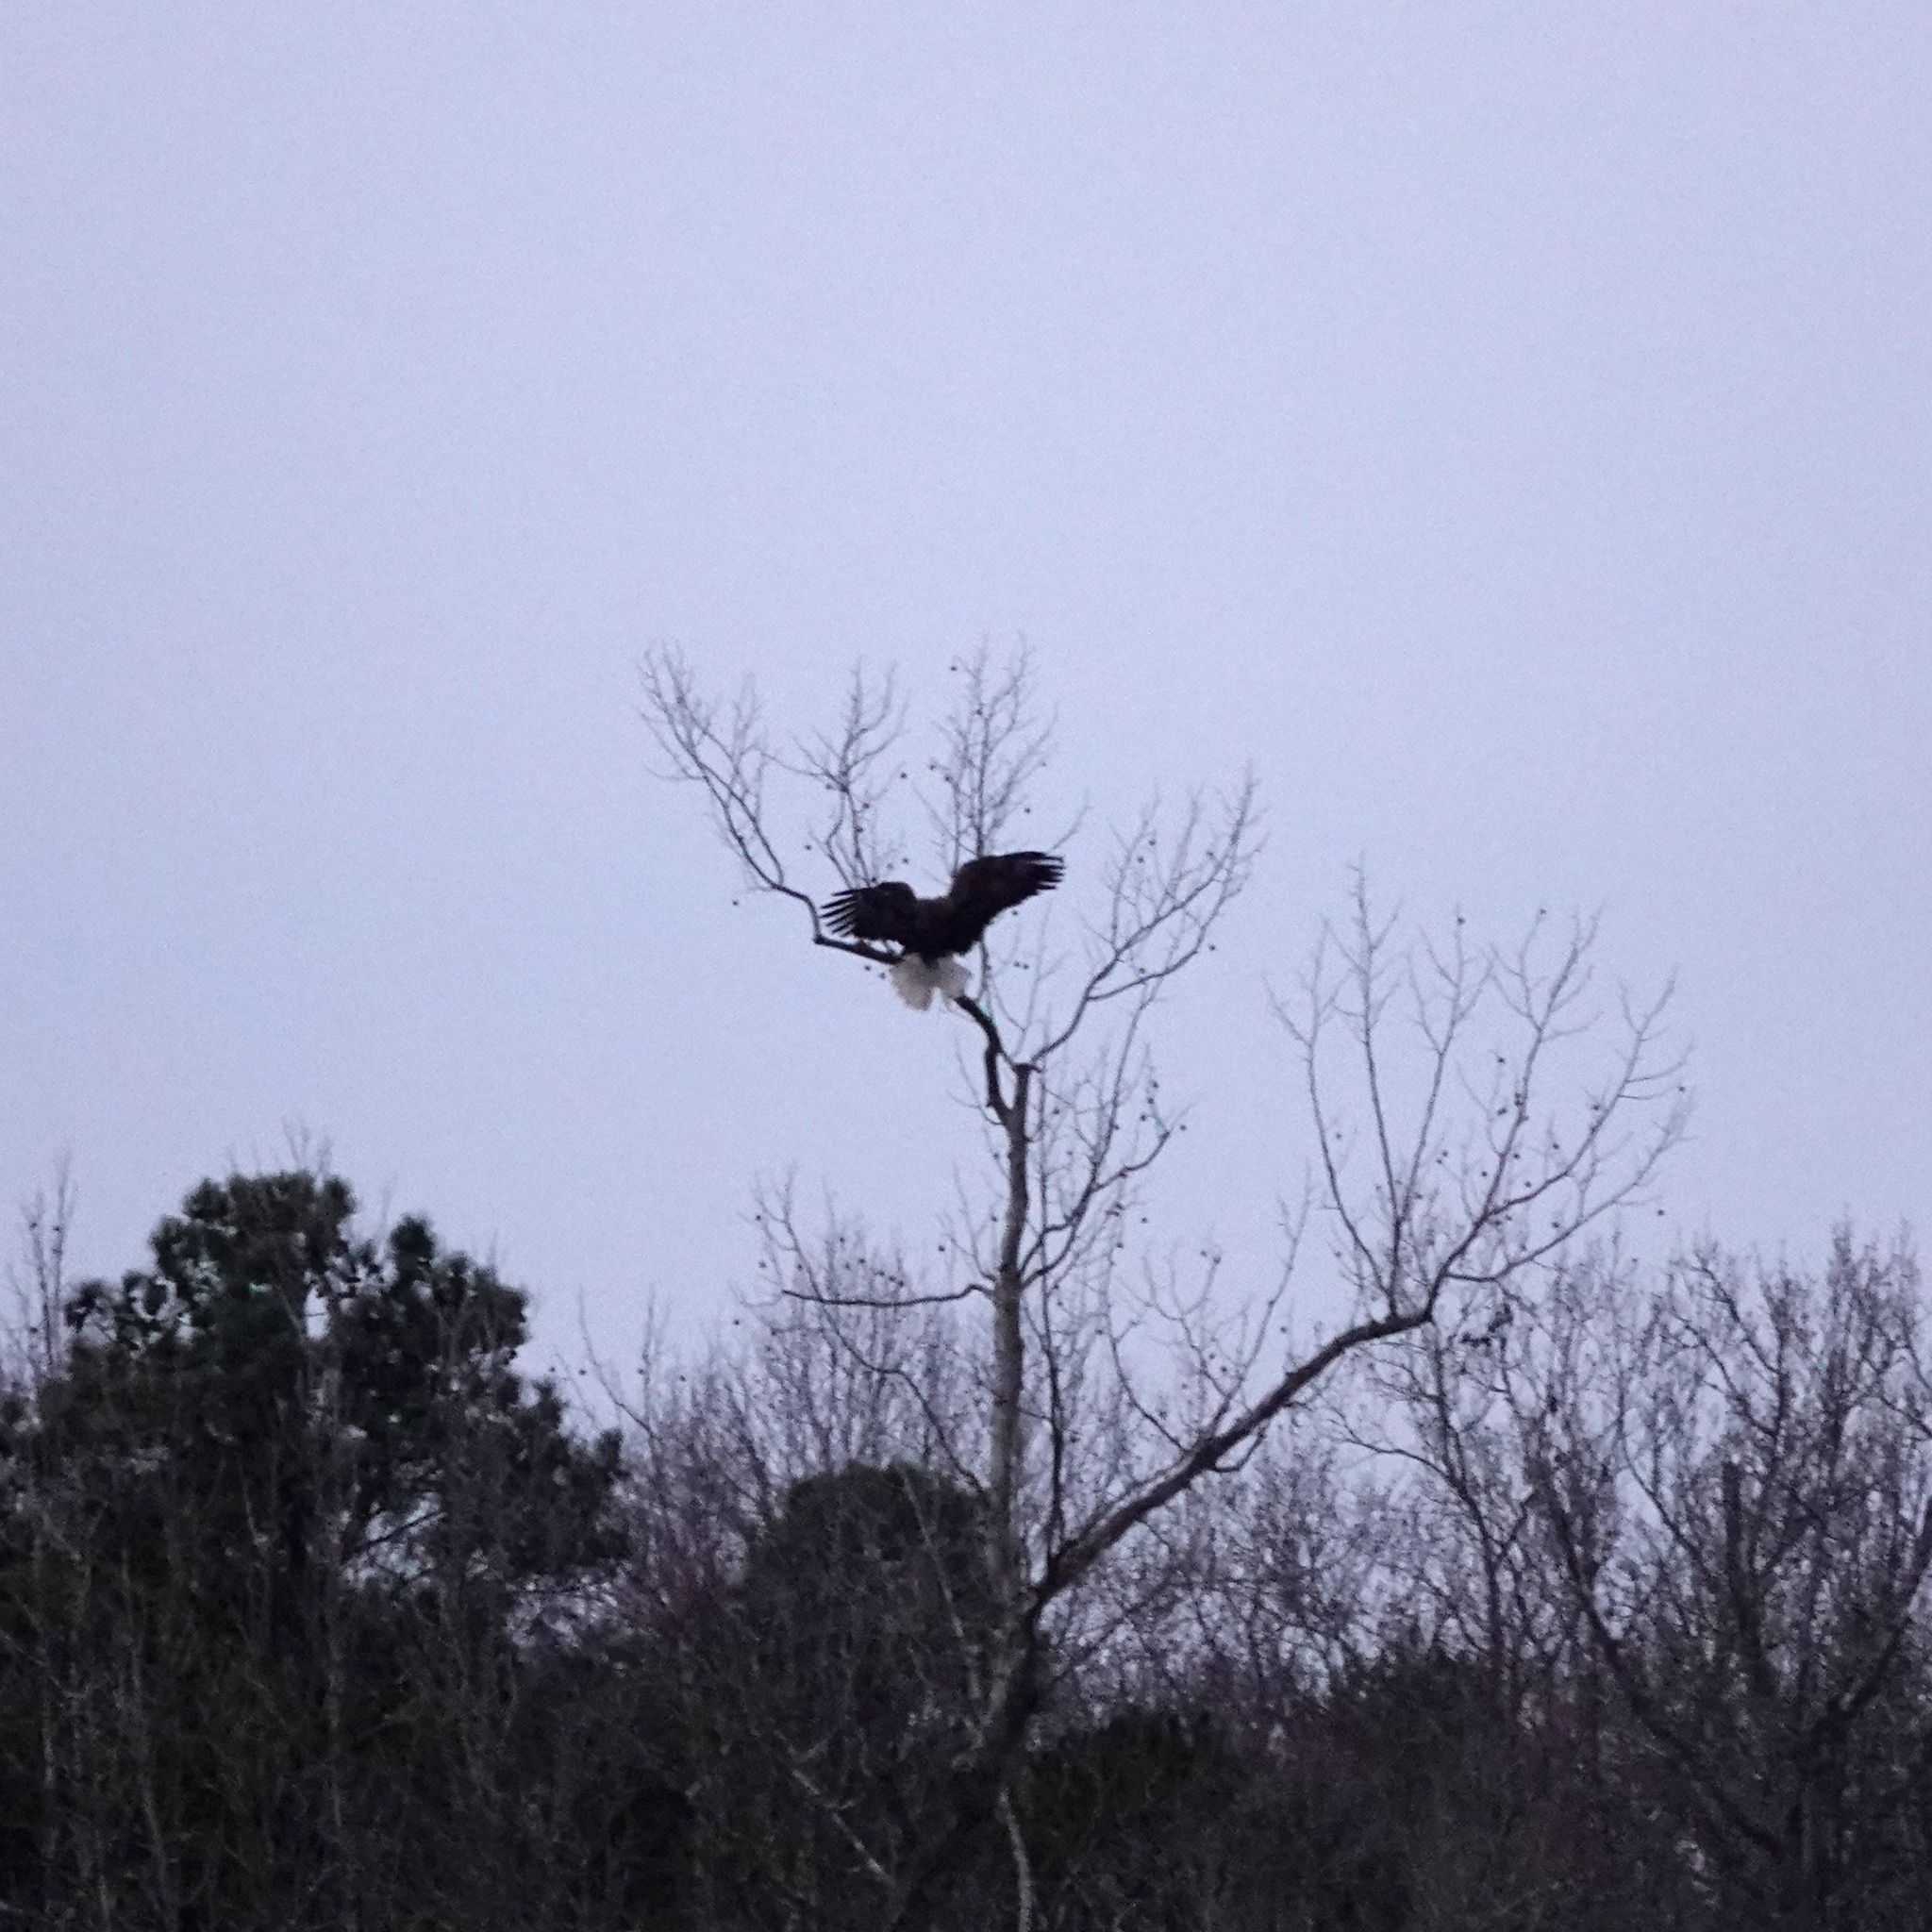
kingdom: Animalia
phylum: Chordata
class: Aves
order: Accipitriformes
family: Accipitridae
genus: Haliaeetus
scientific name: Haliaeetus leucocephalus
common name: Bald eagle
